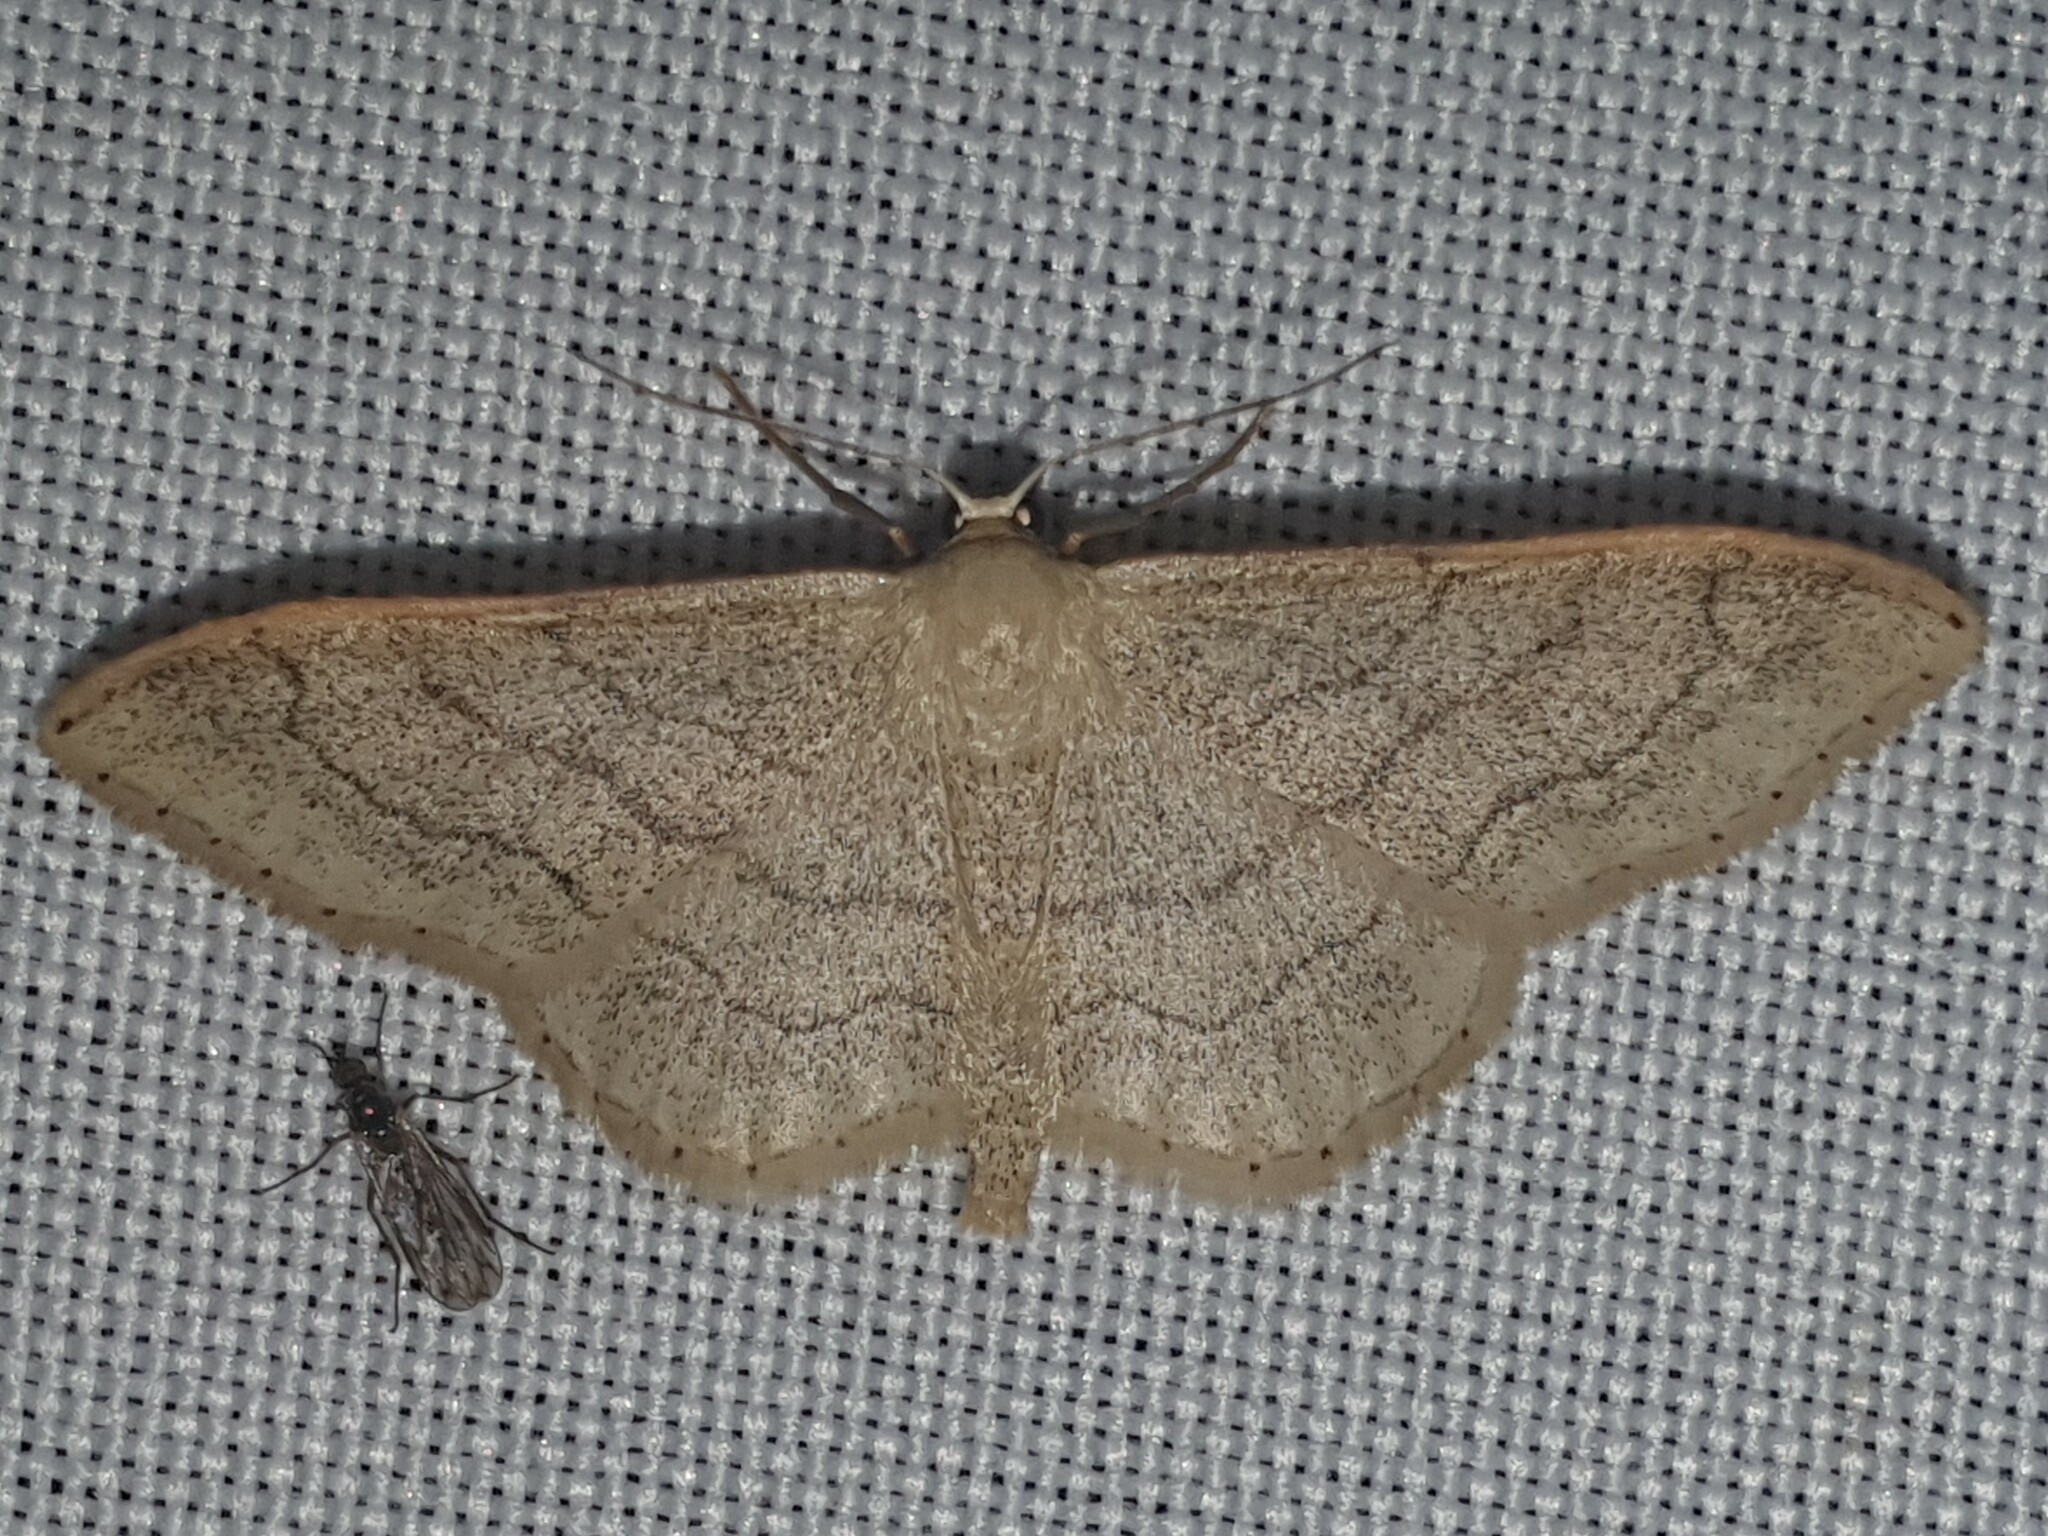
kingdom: Animalia
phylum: Arthropoda
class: Insecta
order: Lepidoptera
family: Geometridae
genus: Idaea
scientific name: Idaea aversata
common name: Riband wave
